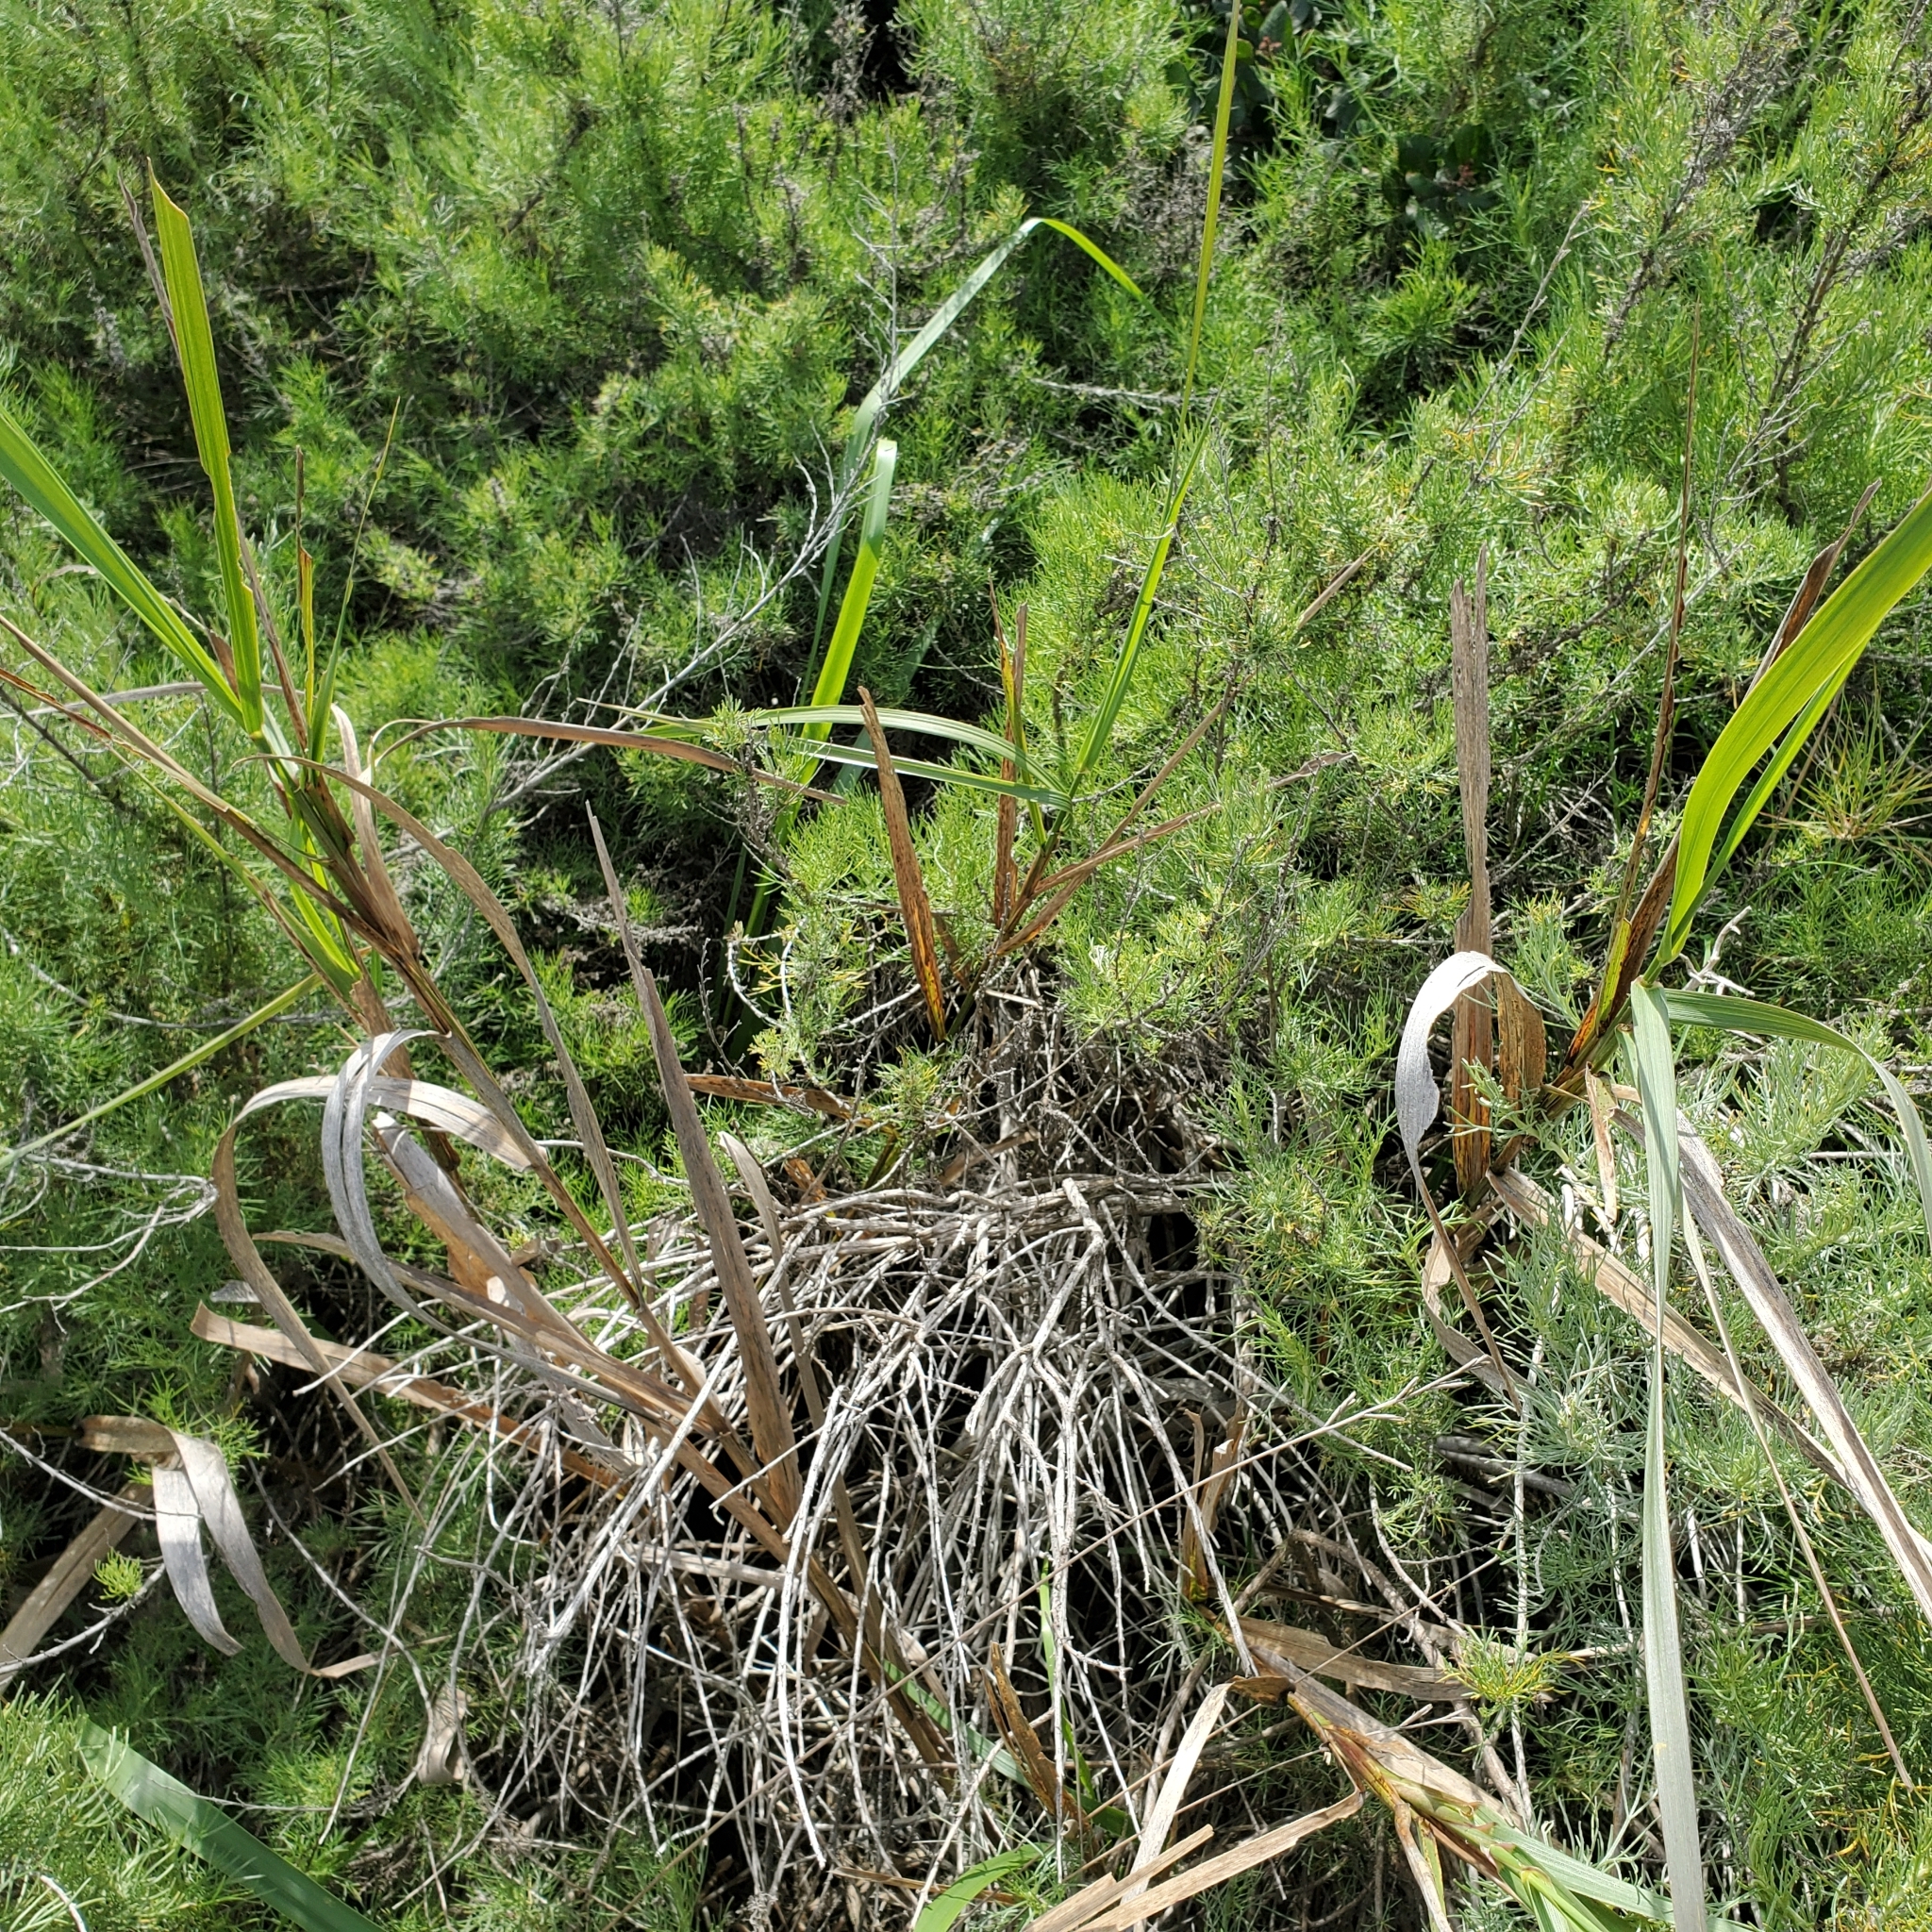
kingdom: Plantae
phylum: Tracheophyta
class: Liliopsida
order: Poales
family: Poaceae
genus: Leymus
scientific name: Leymus condensatus
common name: Giant wild rye
